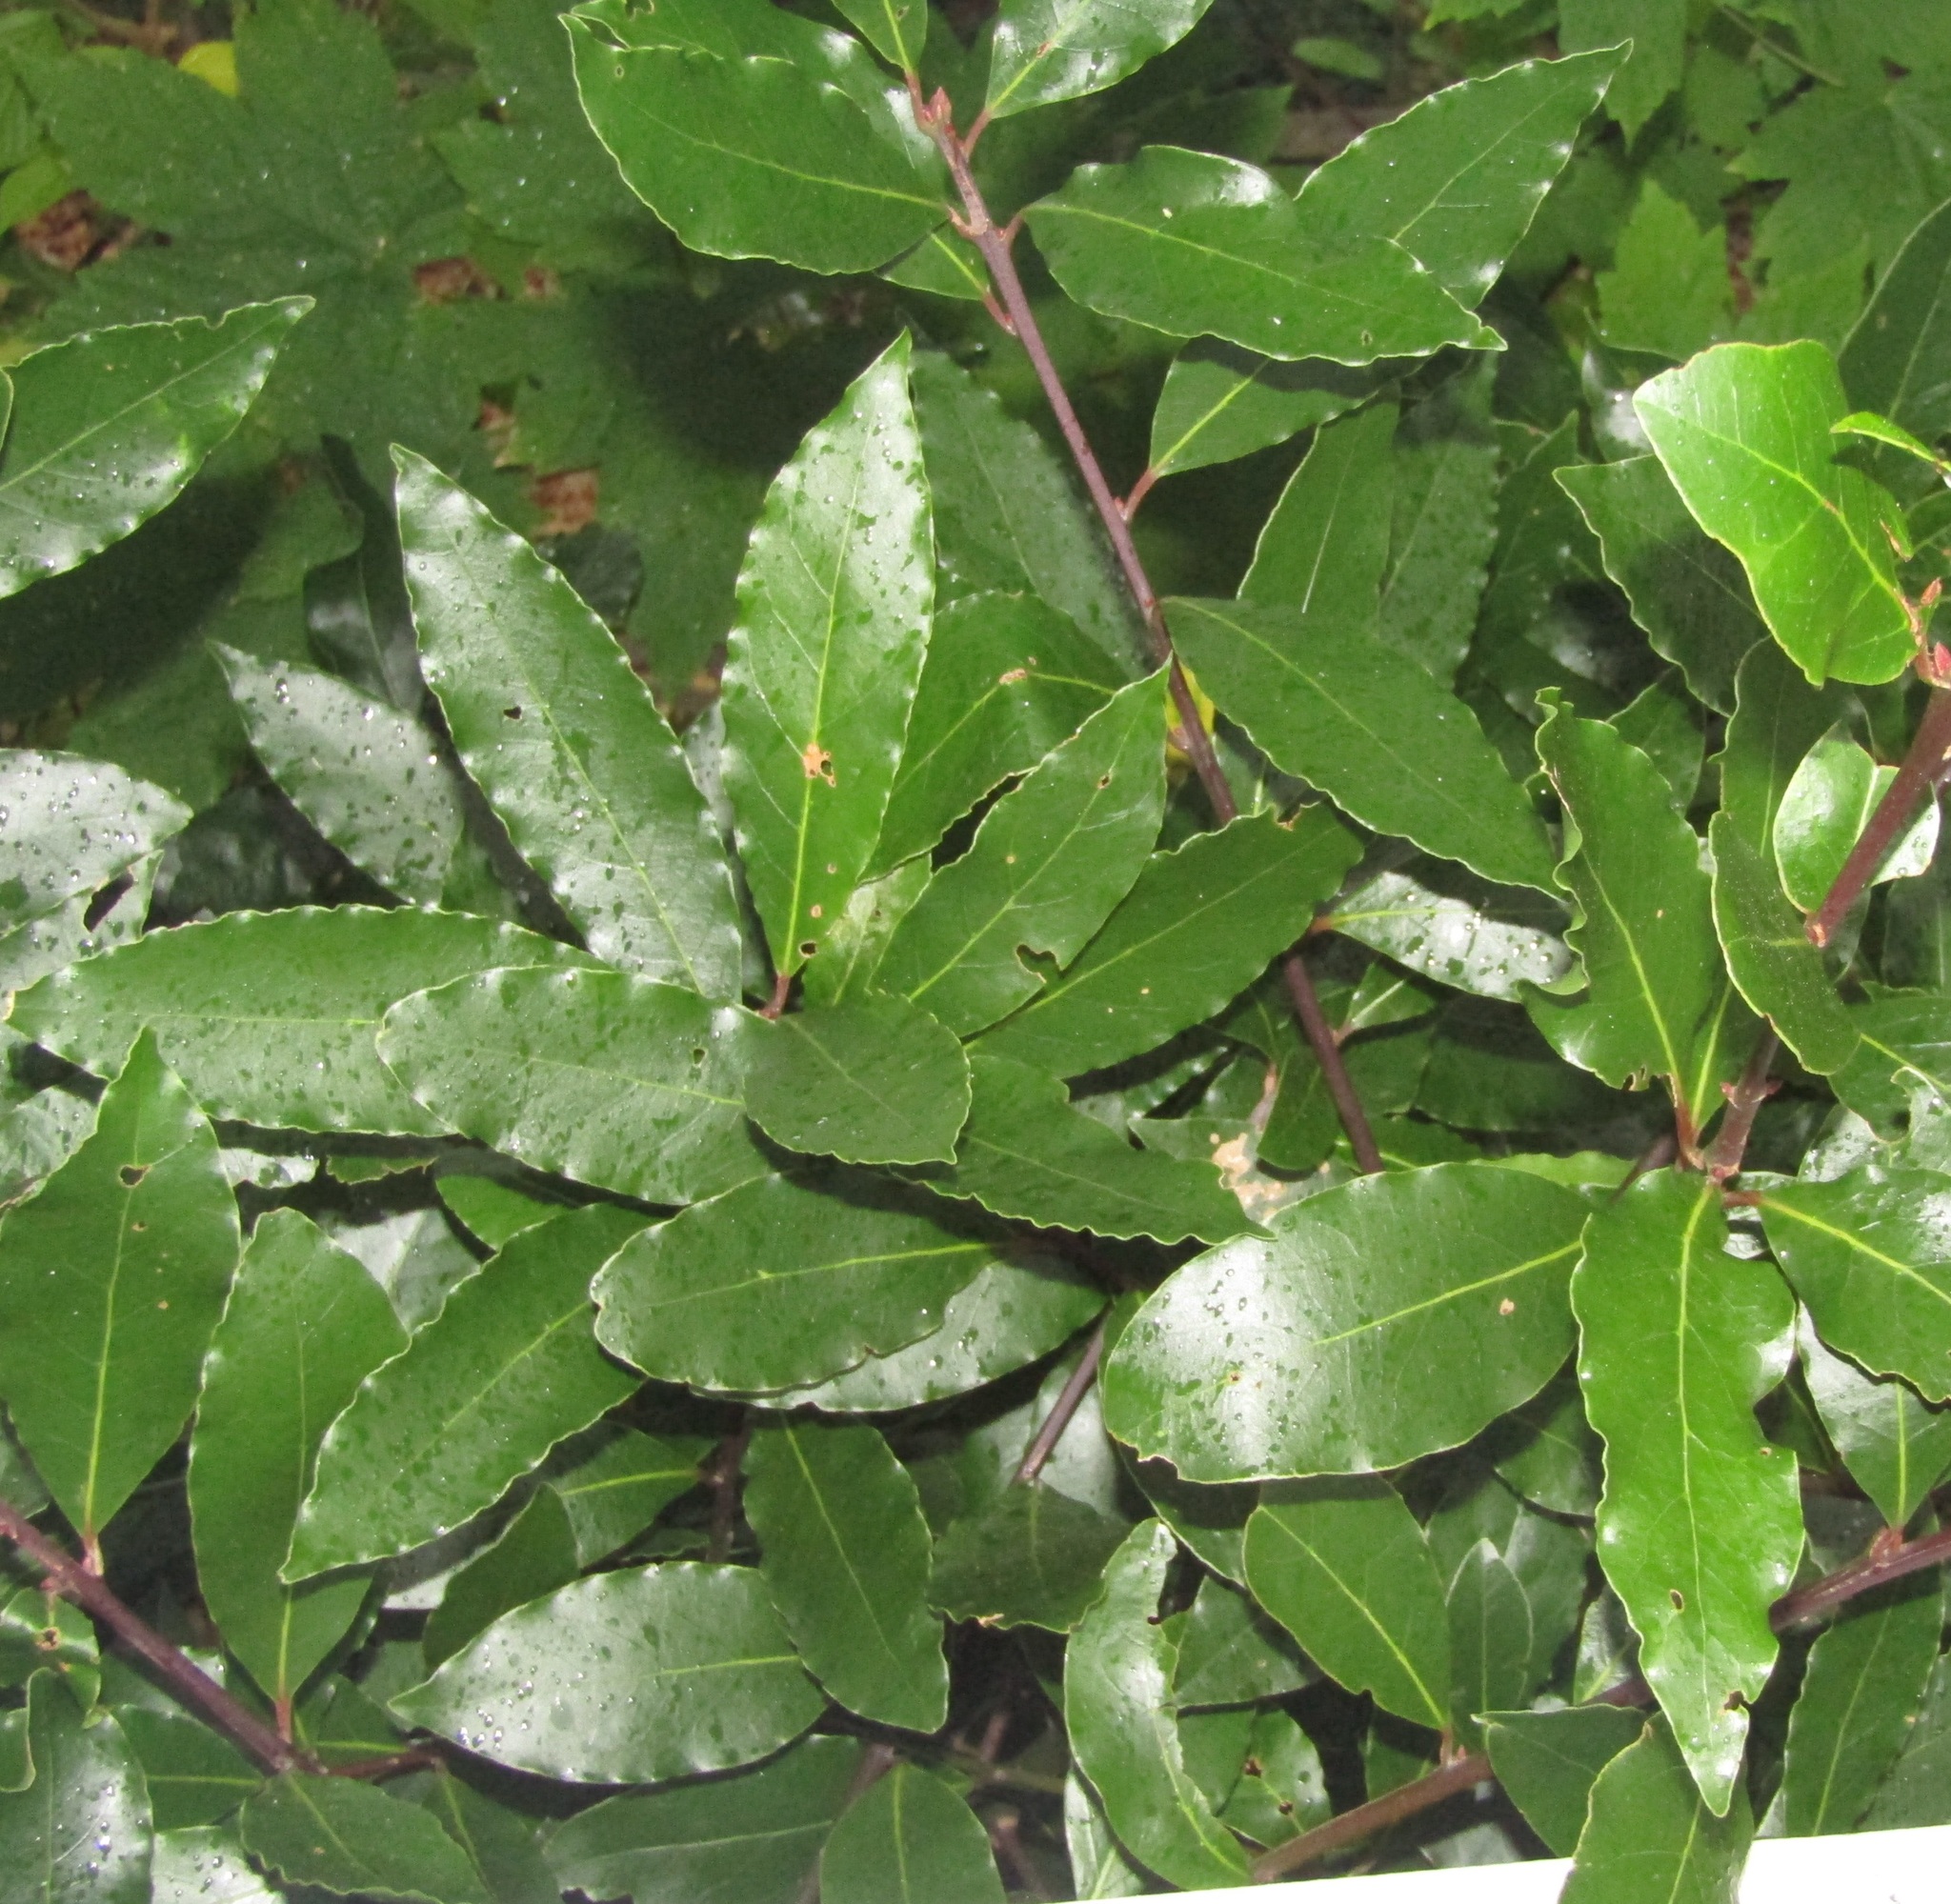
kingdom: Plantae
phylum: Tracheophyta
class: Magnoliopsida
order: Laurales
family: Lauraceae
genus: Laurus
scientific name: Laurus nobilis
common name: Bay
